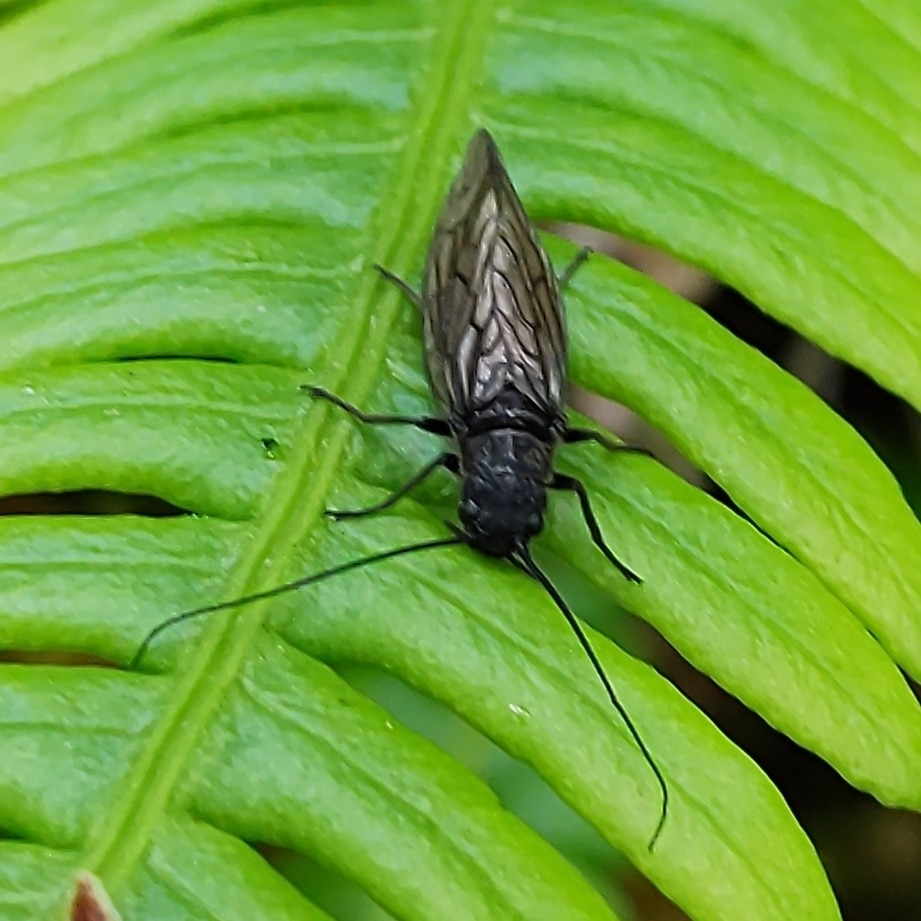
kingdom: Animalia
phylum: Arthropoda
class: Insecta
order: Megaloptera
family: Sialidae
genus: Sialis
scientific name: Sialis
